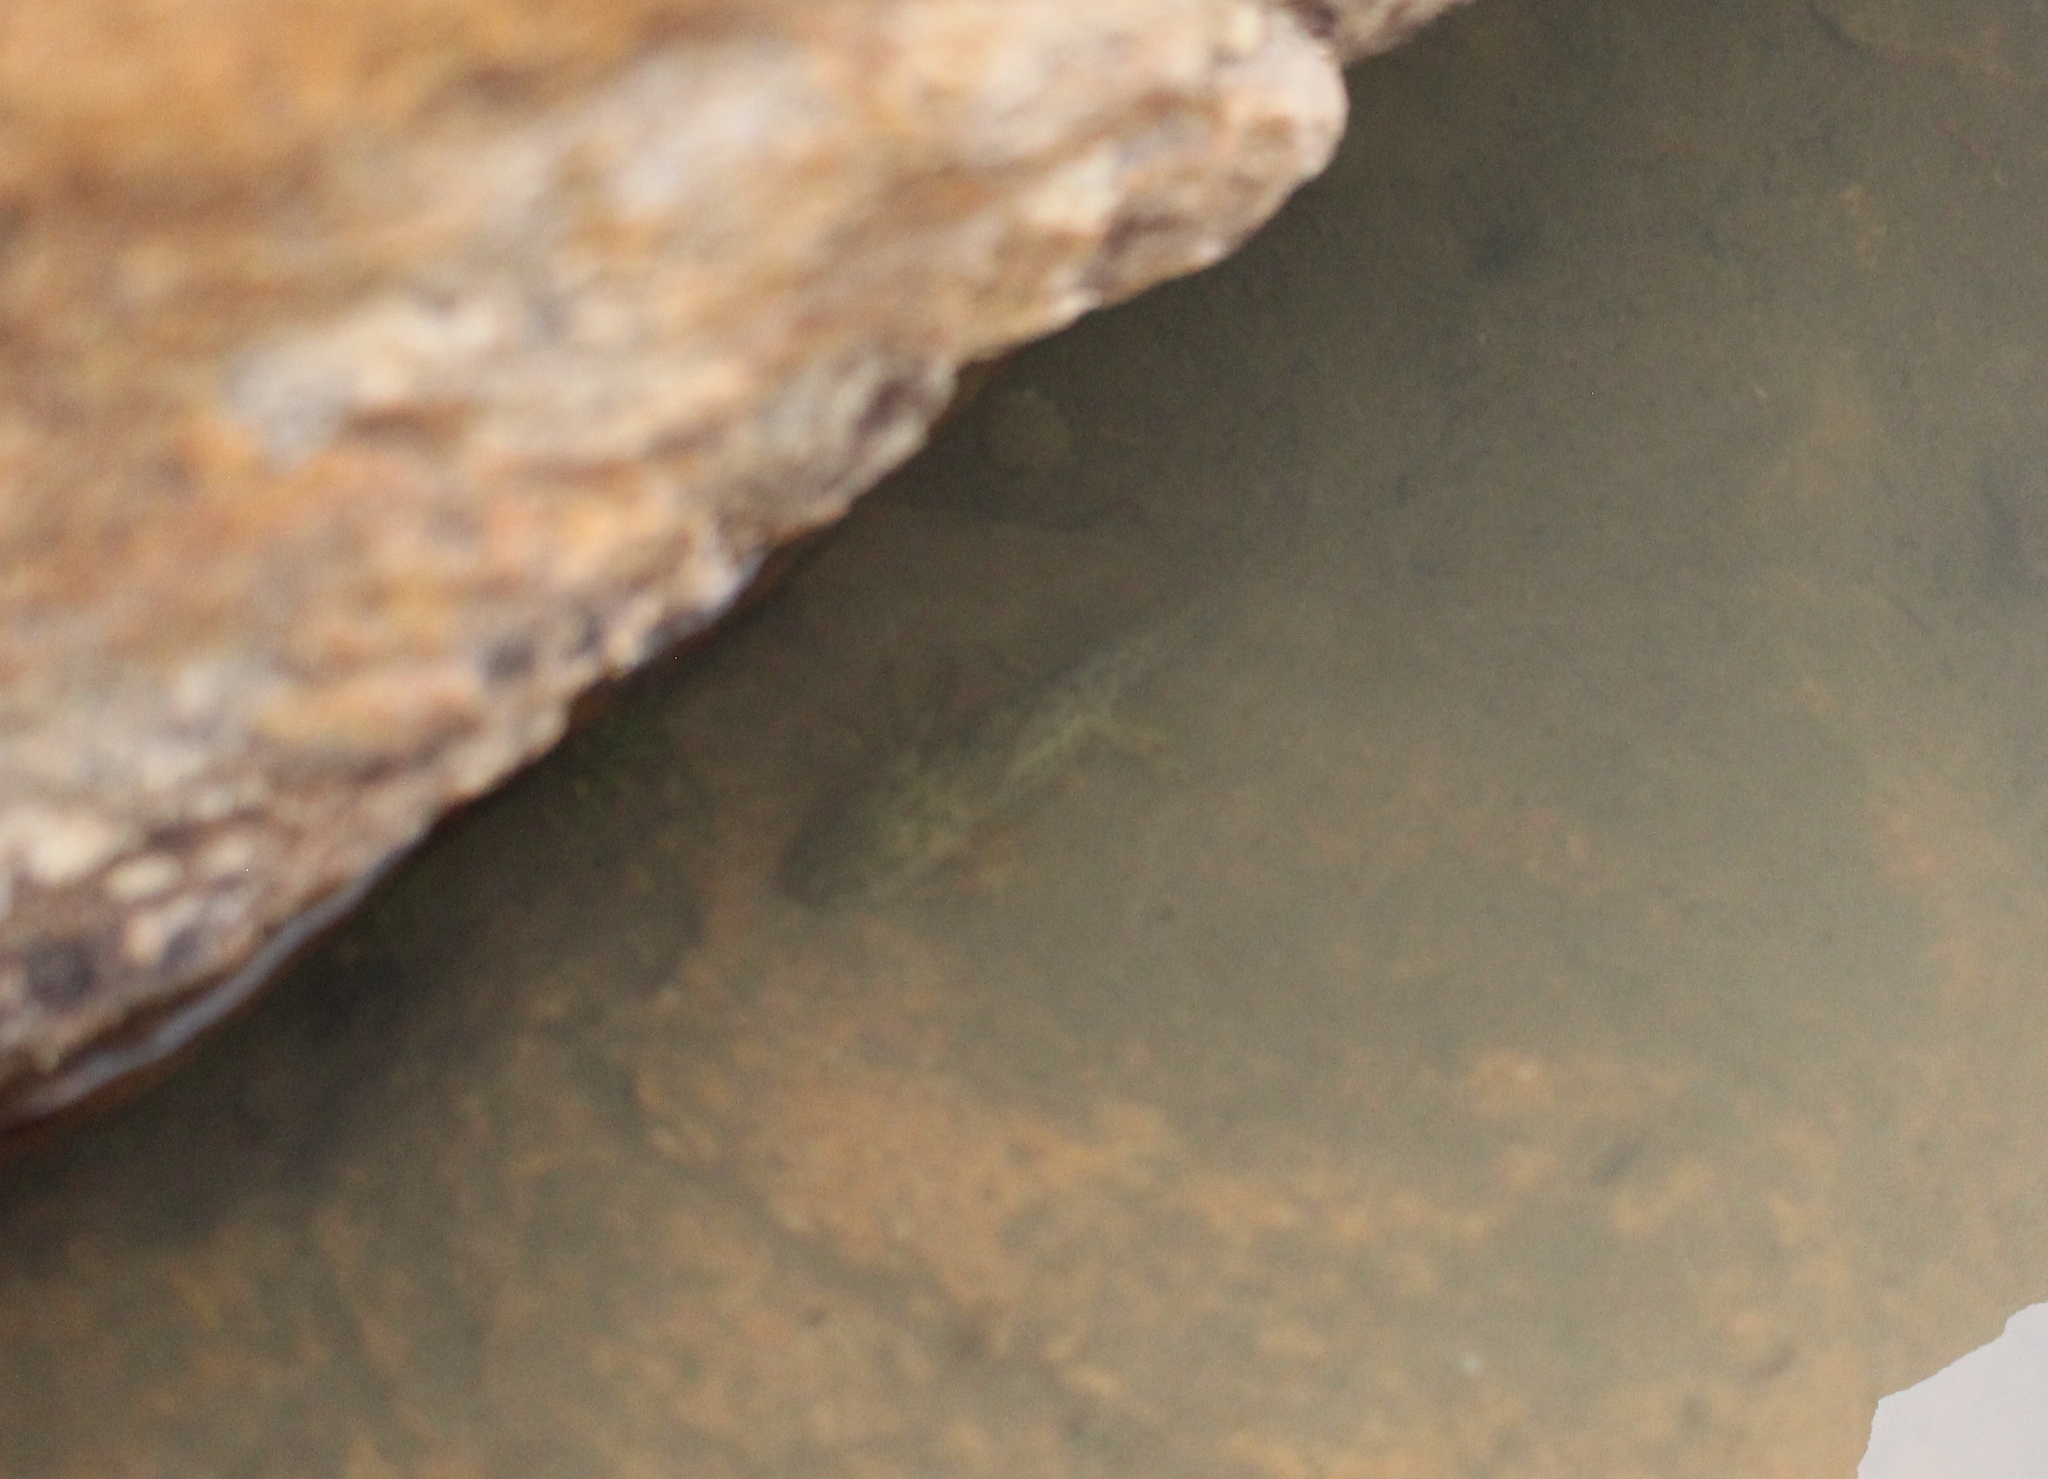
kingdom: Animalia
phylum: Chordata
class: Amphibia
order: Caudata
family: Ambystomatidae
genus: Ambystoma
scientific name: Ambystoma mavortium
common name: Western tiger salamander
